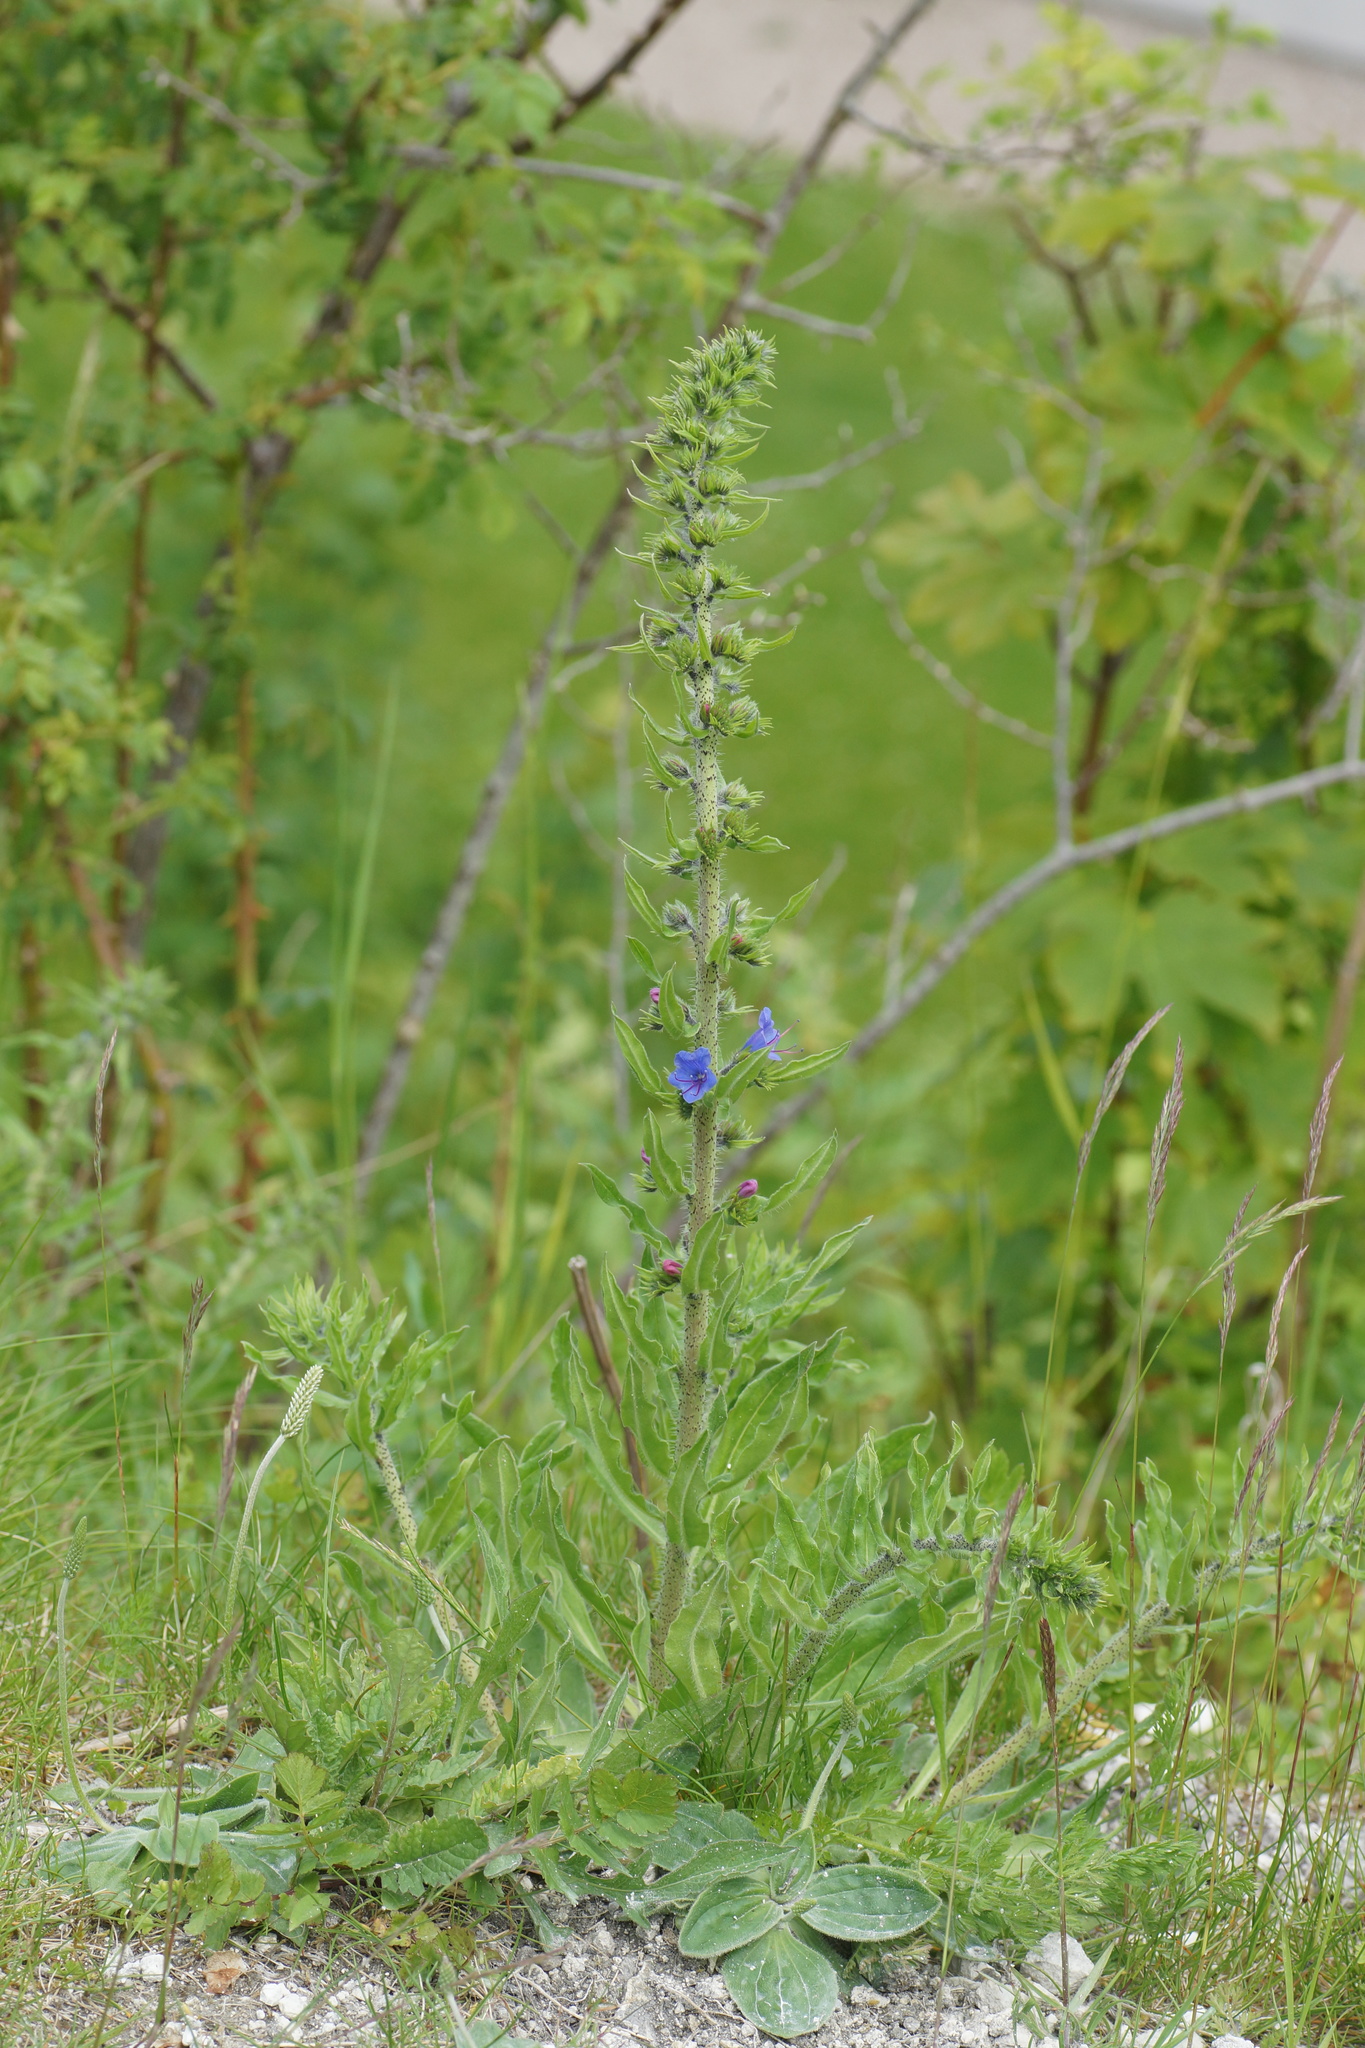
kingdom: Plantae
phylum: Tracheophyta
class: Magnoliopsida
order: Boraginales
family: Boraginaceae
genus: Echium
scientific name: Echium vulgare
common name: Common viper's bugloss
